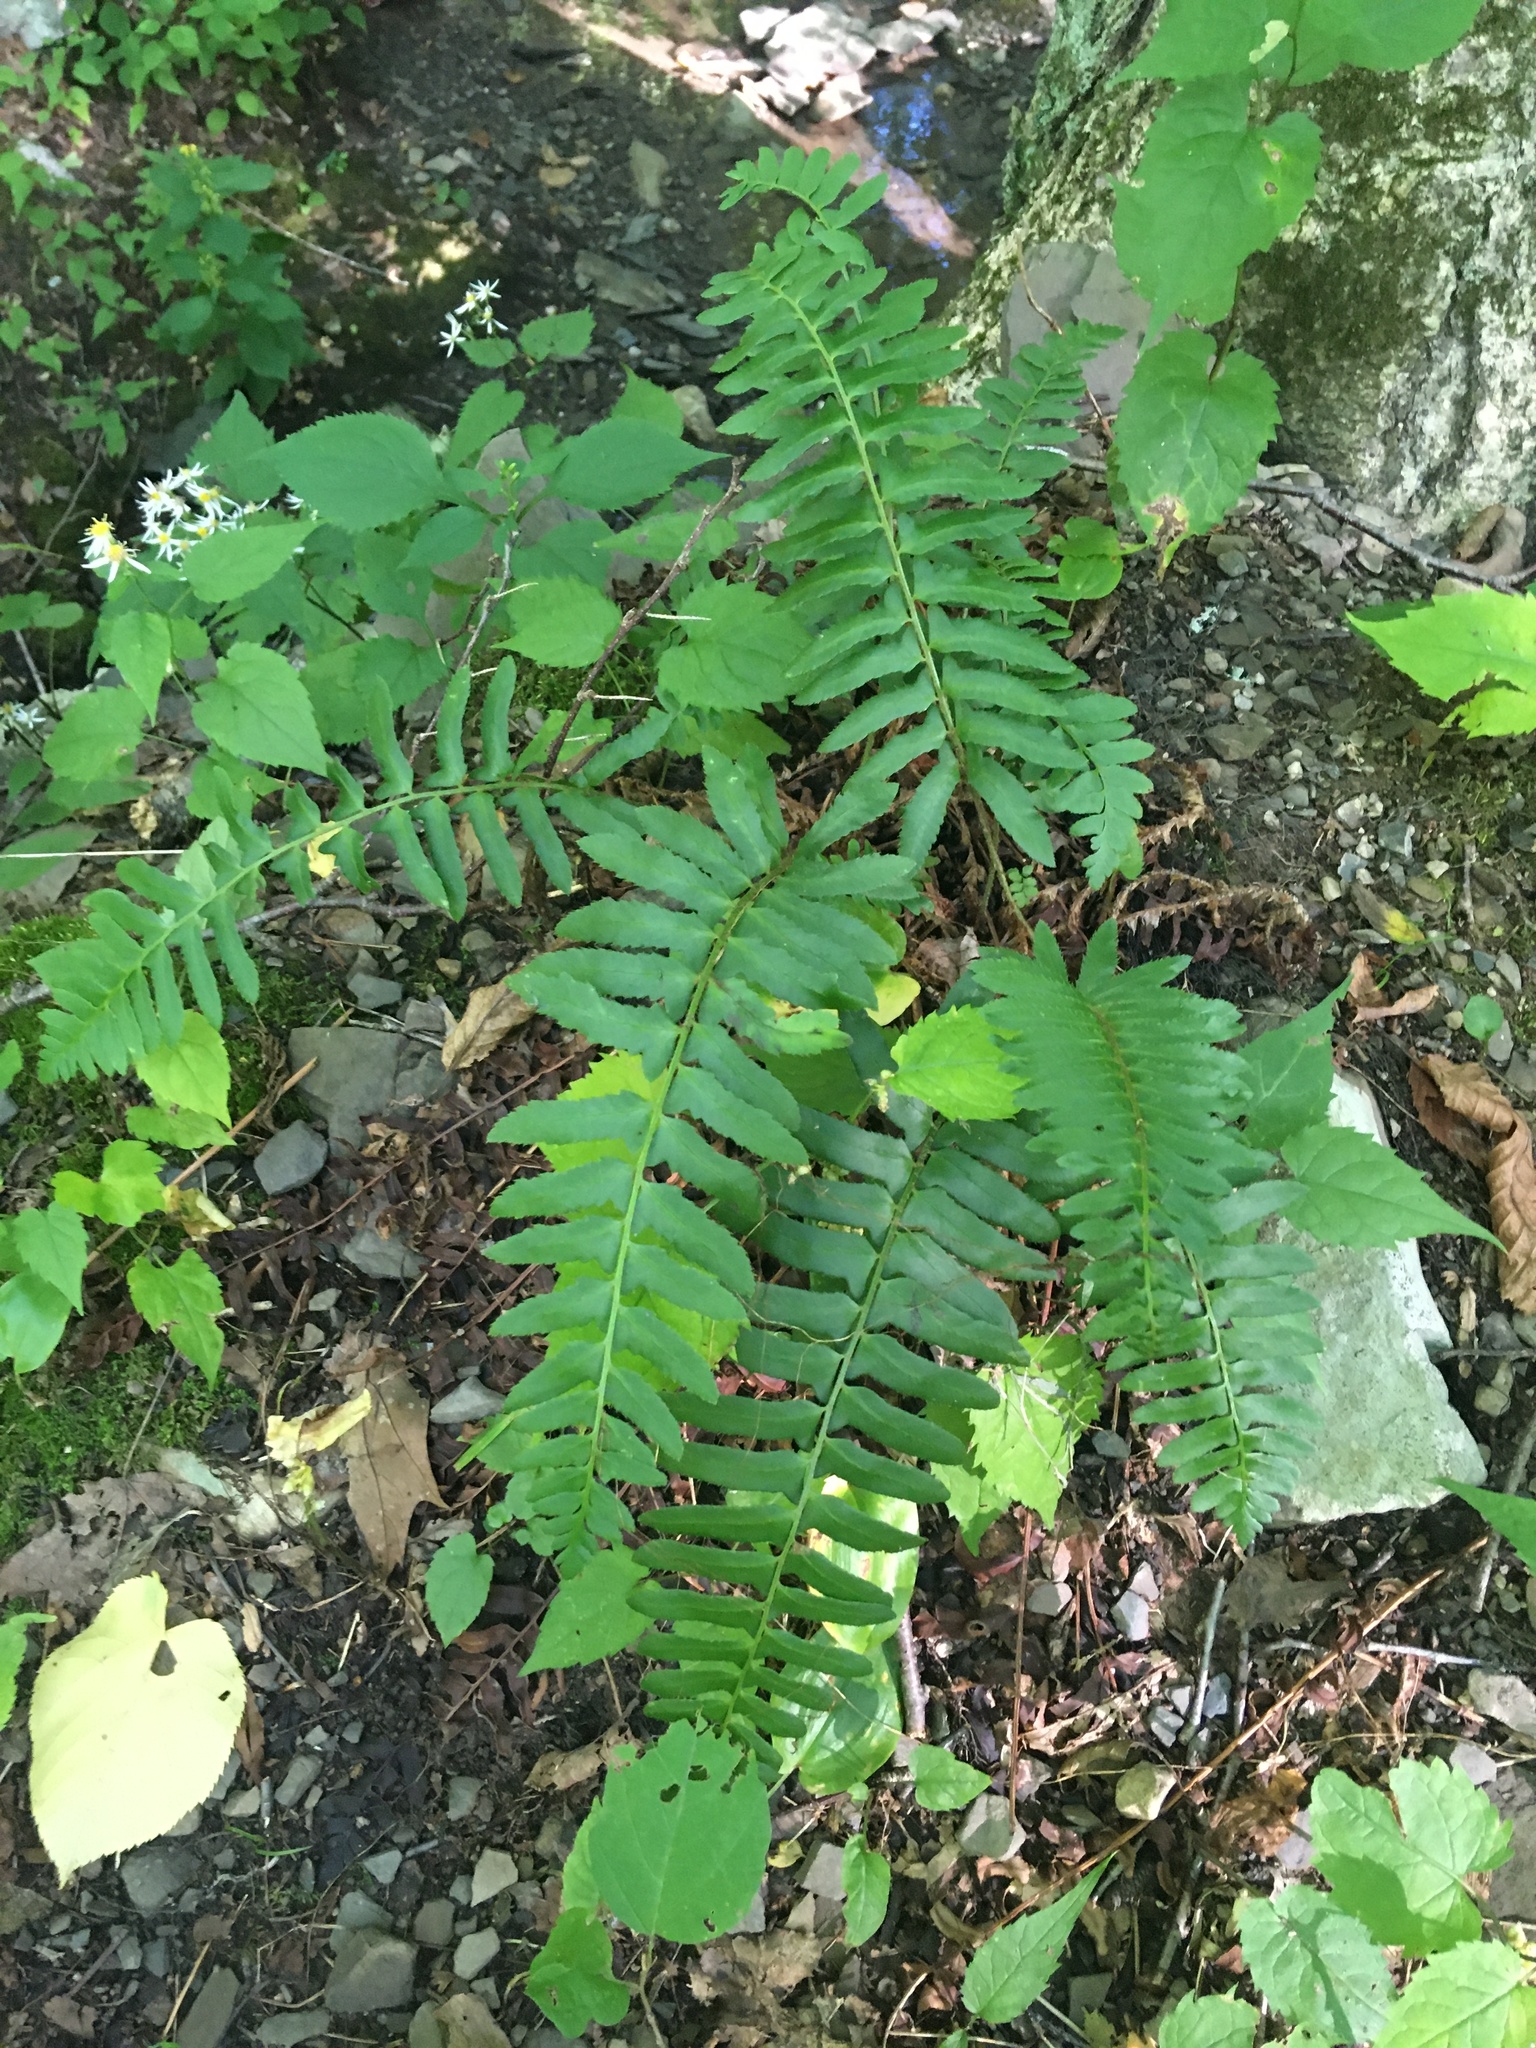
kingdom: Plantae
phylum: Tracheophyta
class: Polypodiopsida
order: Polypodiales
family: Dryopteridaceae
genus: Polystichum
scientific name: Polystichum acrostichoides
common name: Christmas fern
